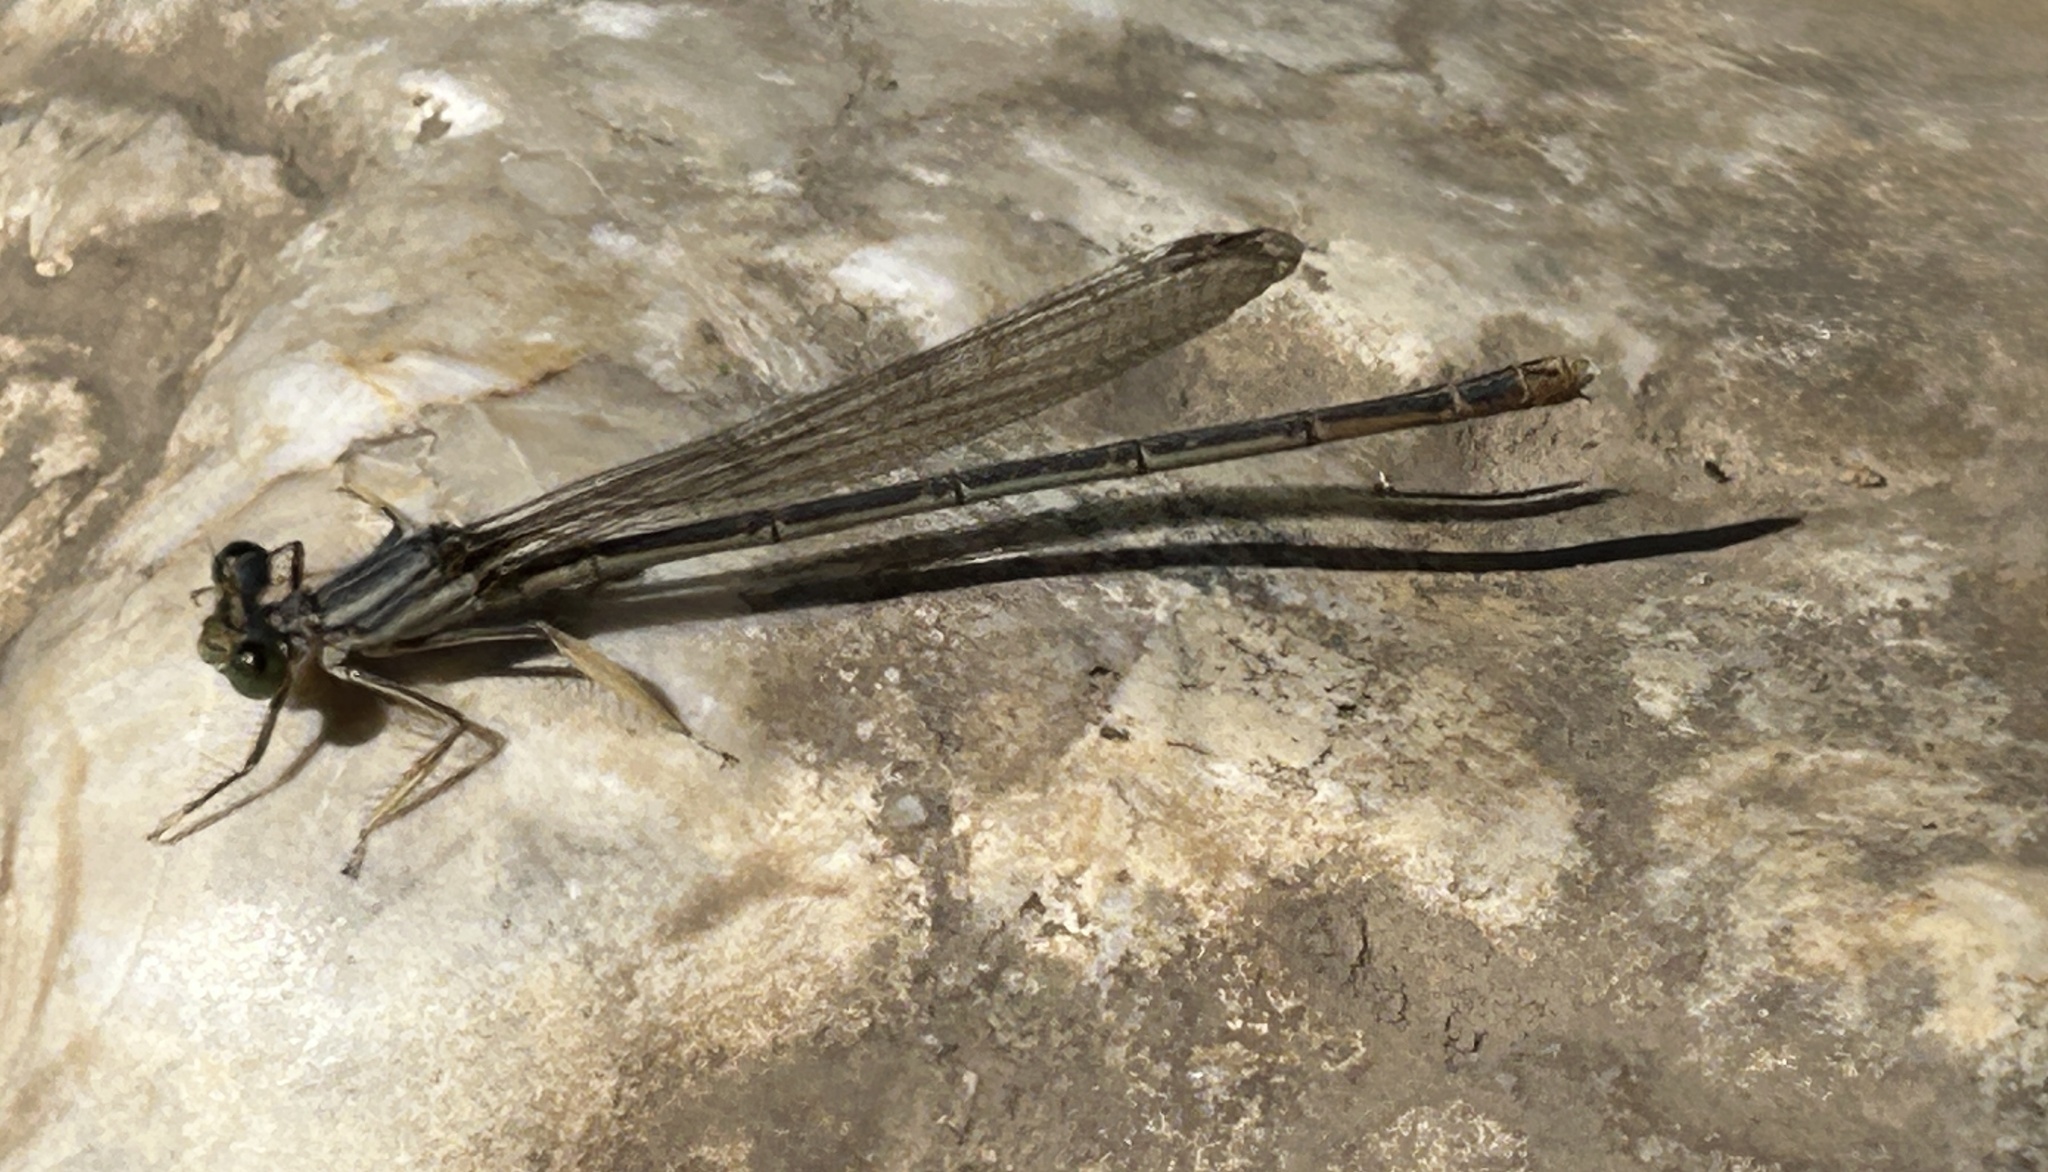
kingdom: Animalia
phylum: Arthropoda
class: Insecta
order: Odonata
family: Platycnemididae
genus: Platycnemis
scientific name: Platycnemis pennipes
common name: White-legged damselfly
